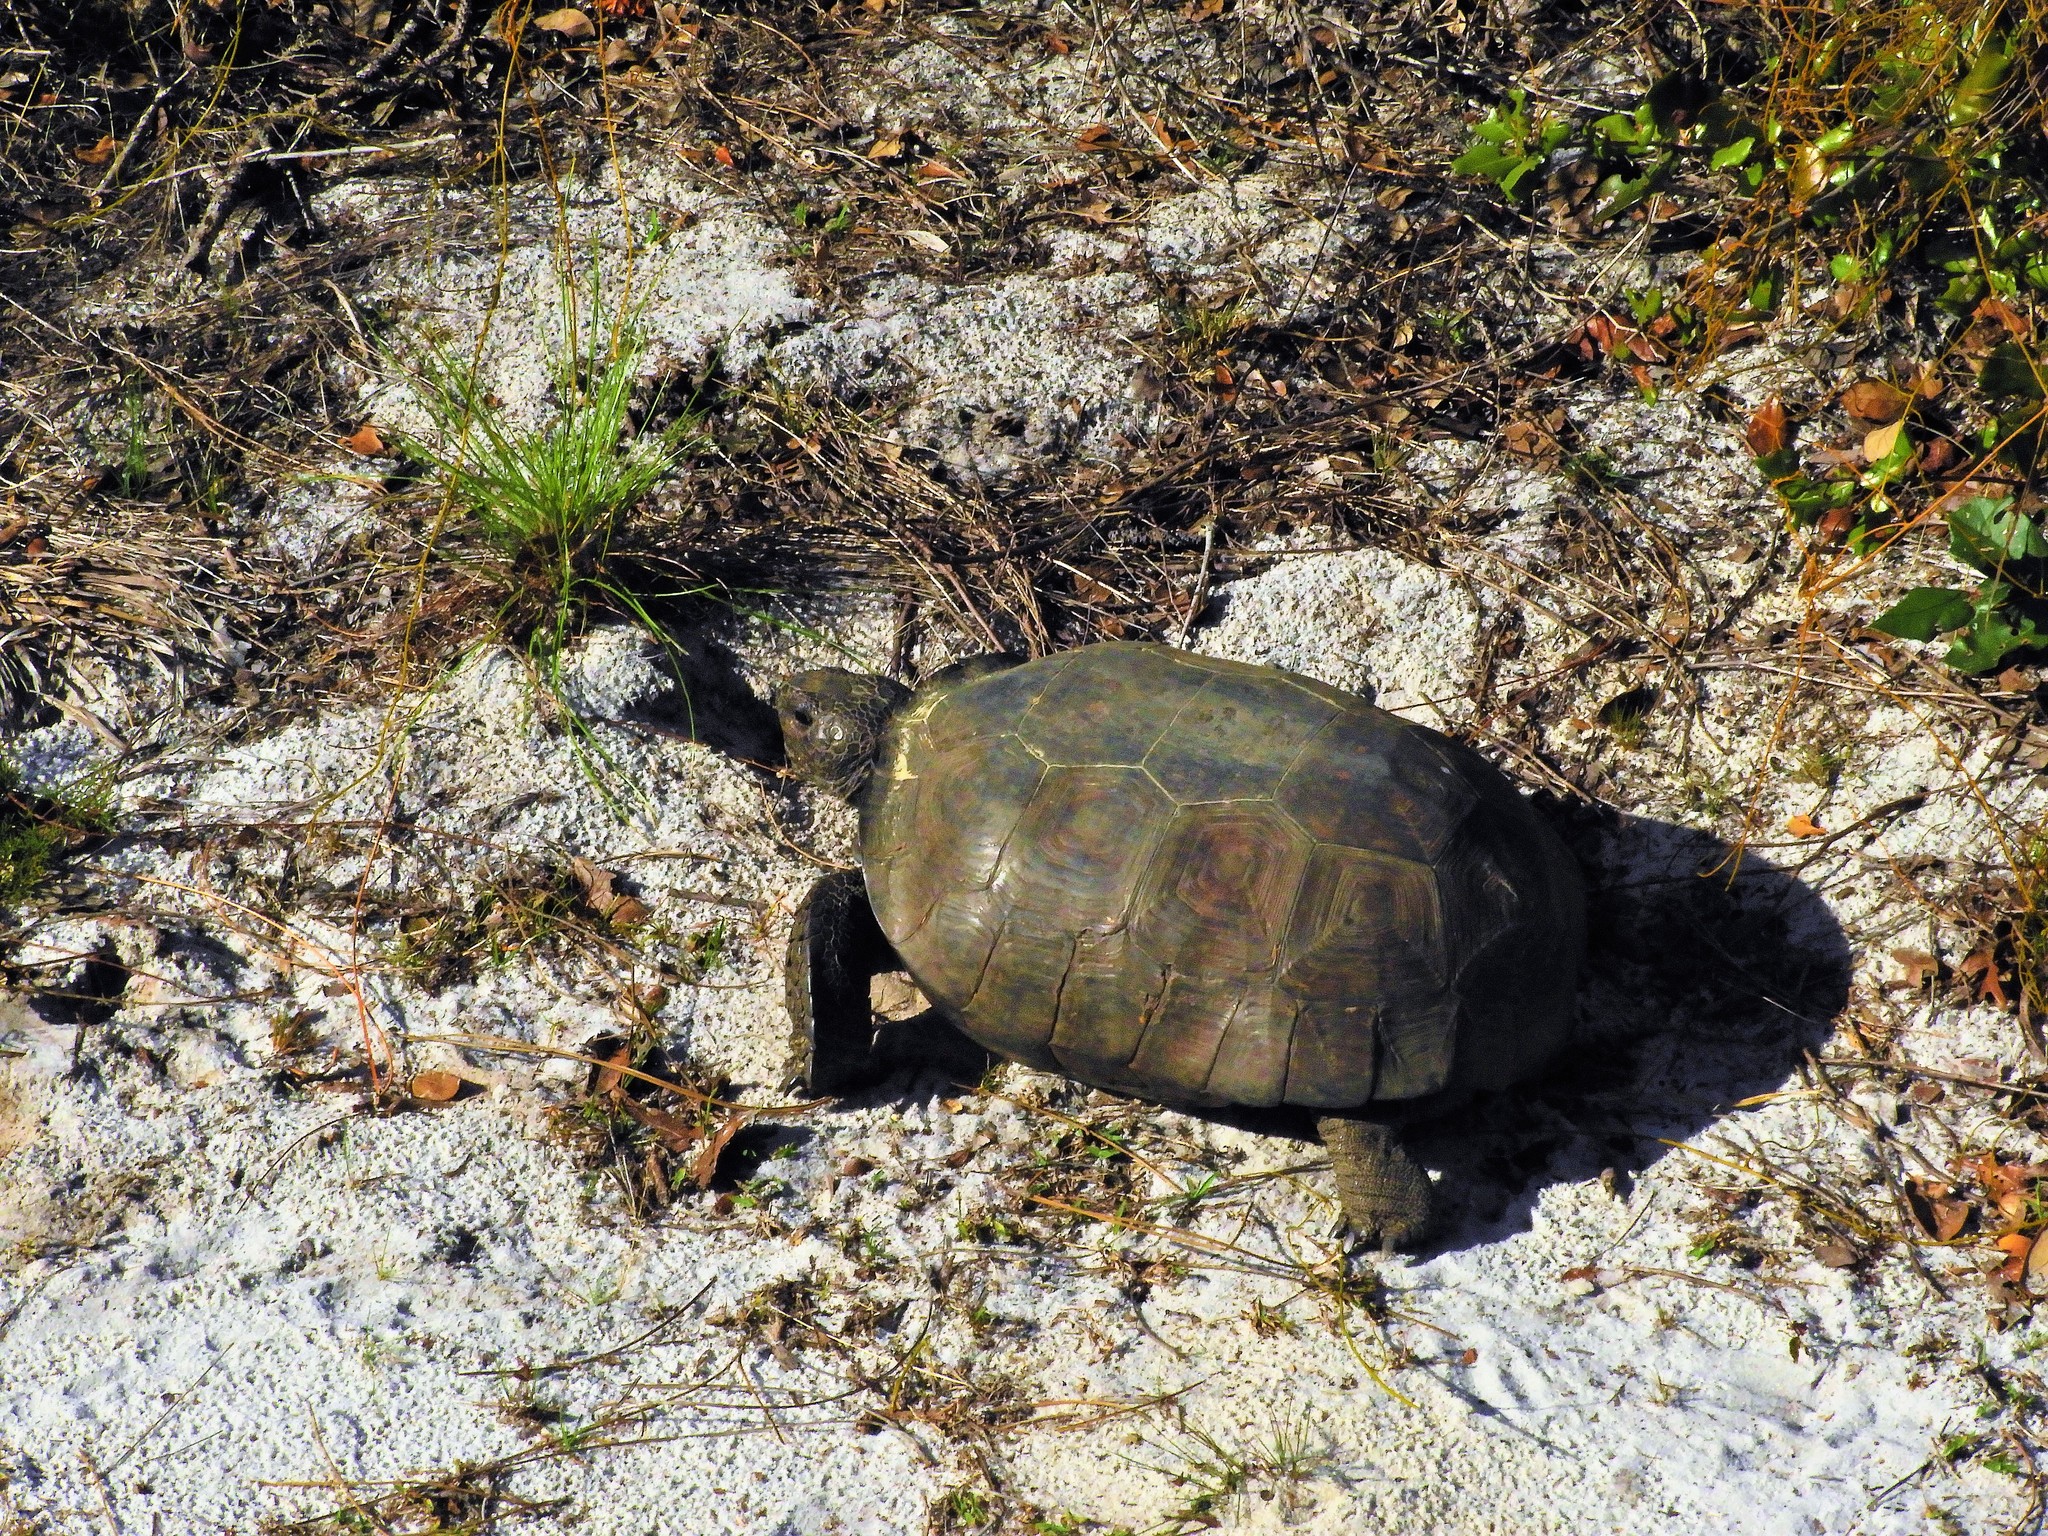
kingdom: Animalia
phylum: Chordata
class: Testudines
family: Testudinidae
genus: Gopherus
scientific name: Gopherus polyphemus
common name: Florida gopher tortoise
